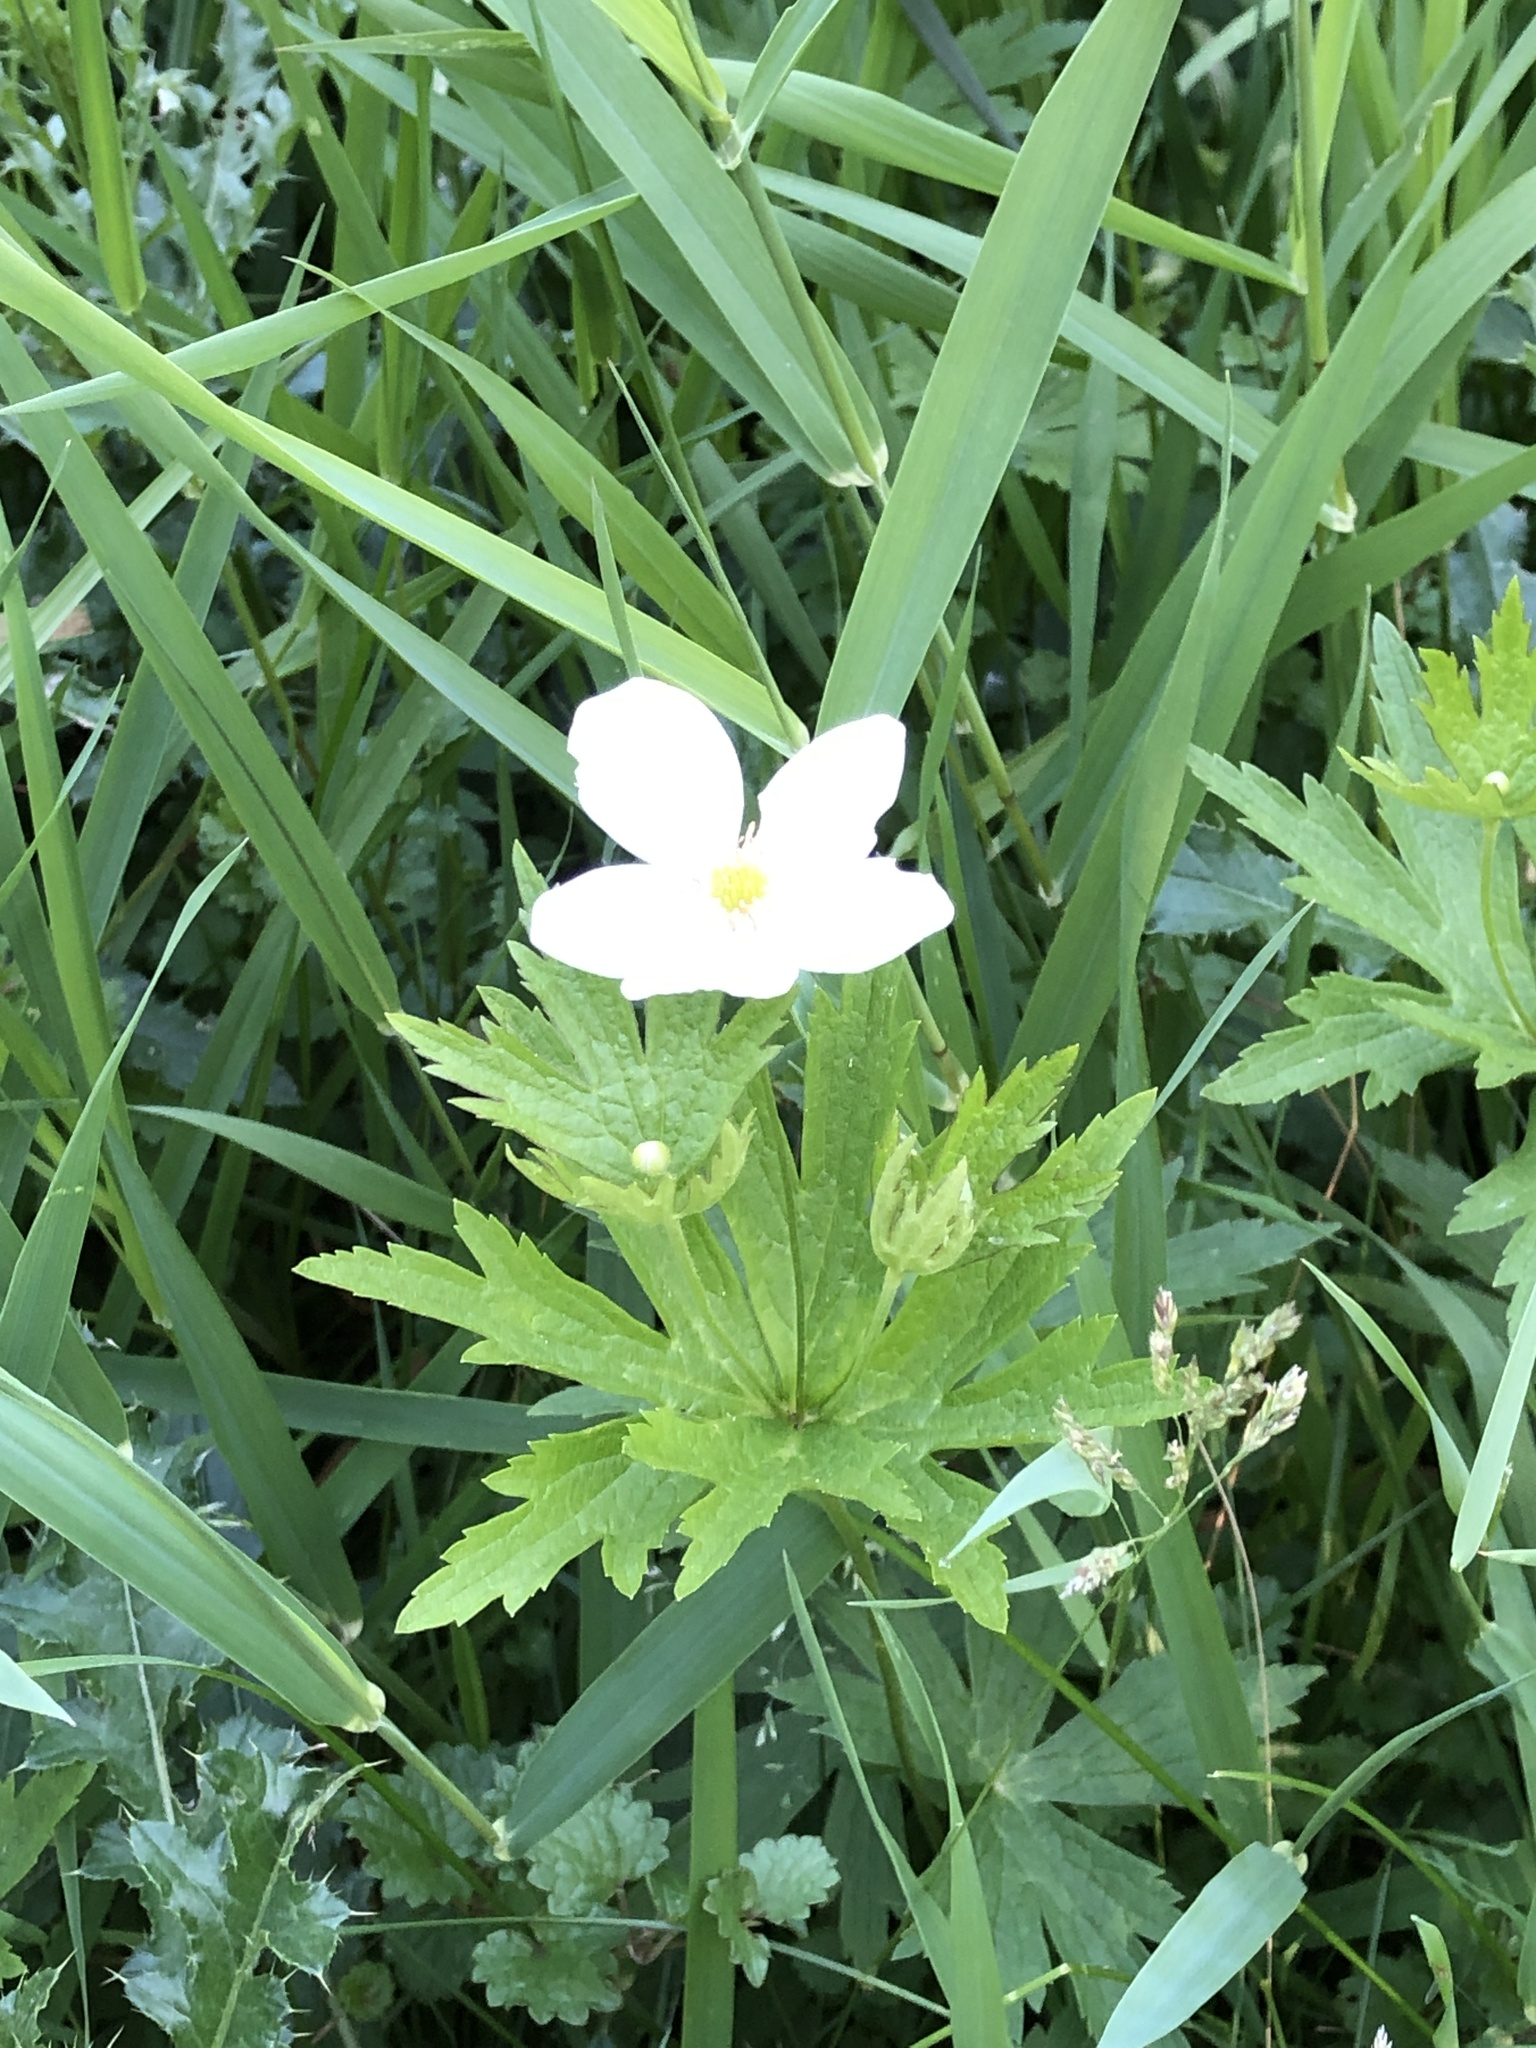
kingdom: Plantae
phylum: Tracheophyta
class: Magnoliopsida
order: Ranunculales
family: Ranunculaceae
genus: Anemonastrum
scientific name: Anemonastrum canadense
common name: Canada anemone
